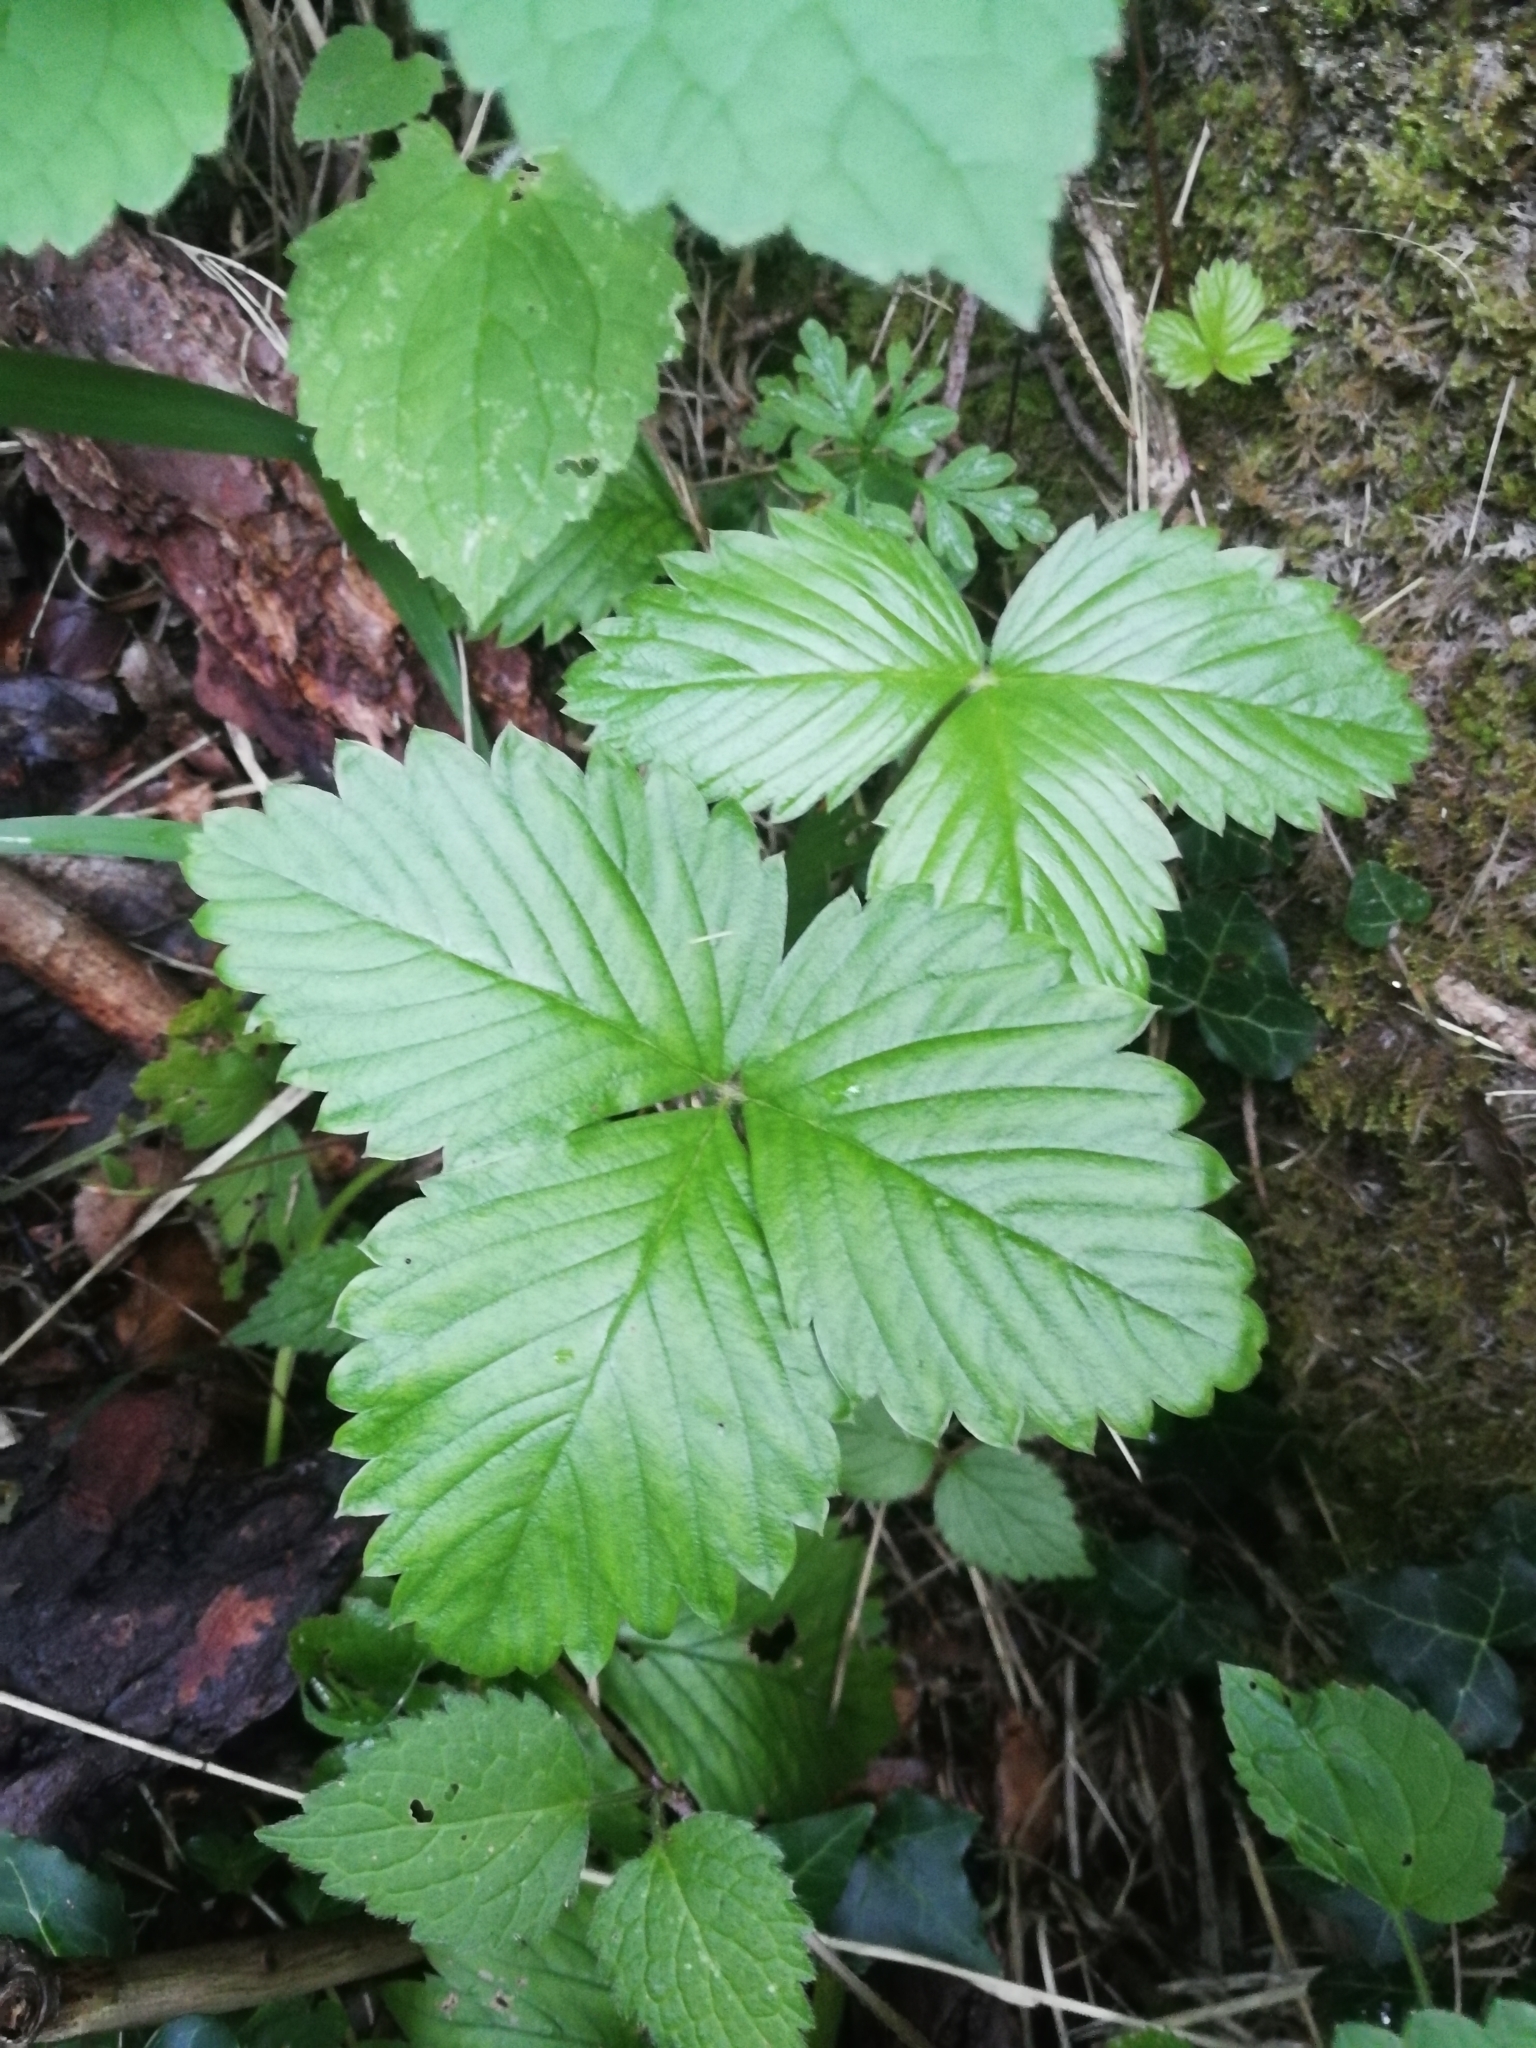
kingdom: Plantae
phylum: Tracheophyta
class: Magnoliopsida
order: Rosales
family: Rosaceae
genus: Fragaria
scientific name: Fragaria vesca
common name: Wild strawberry
